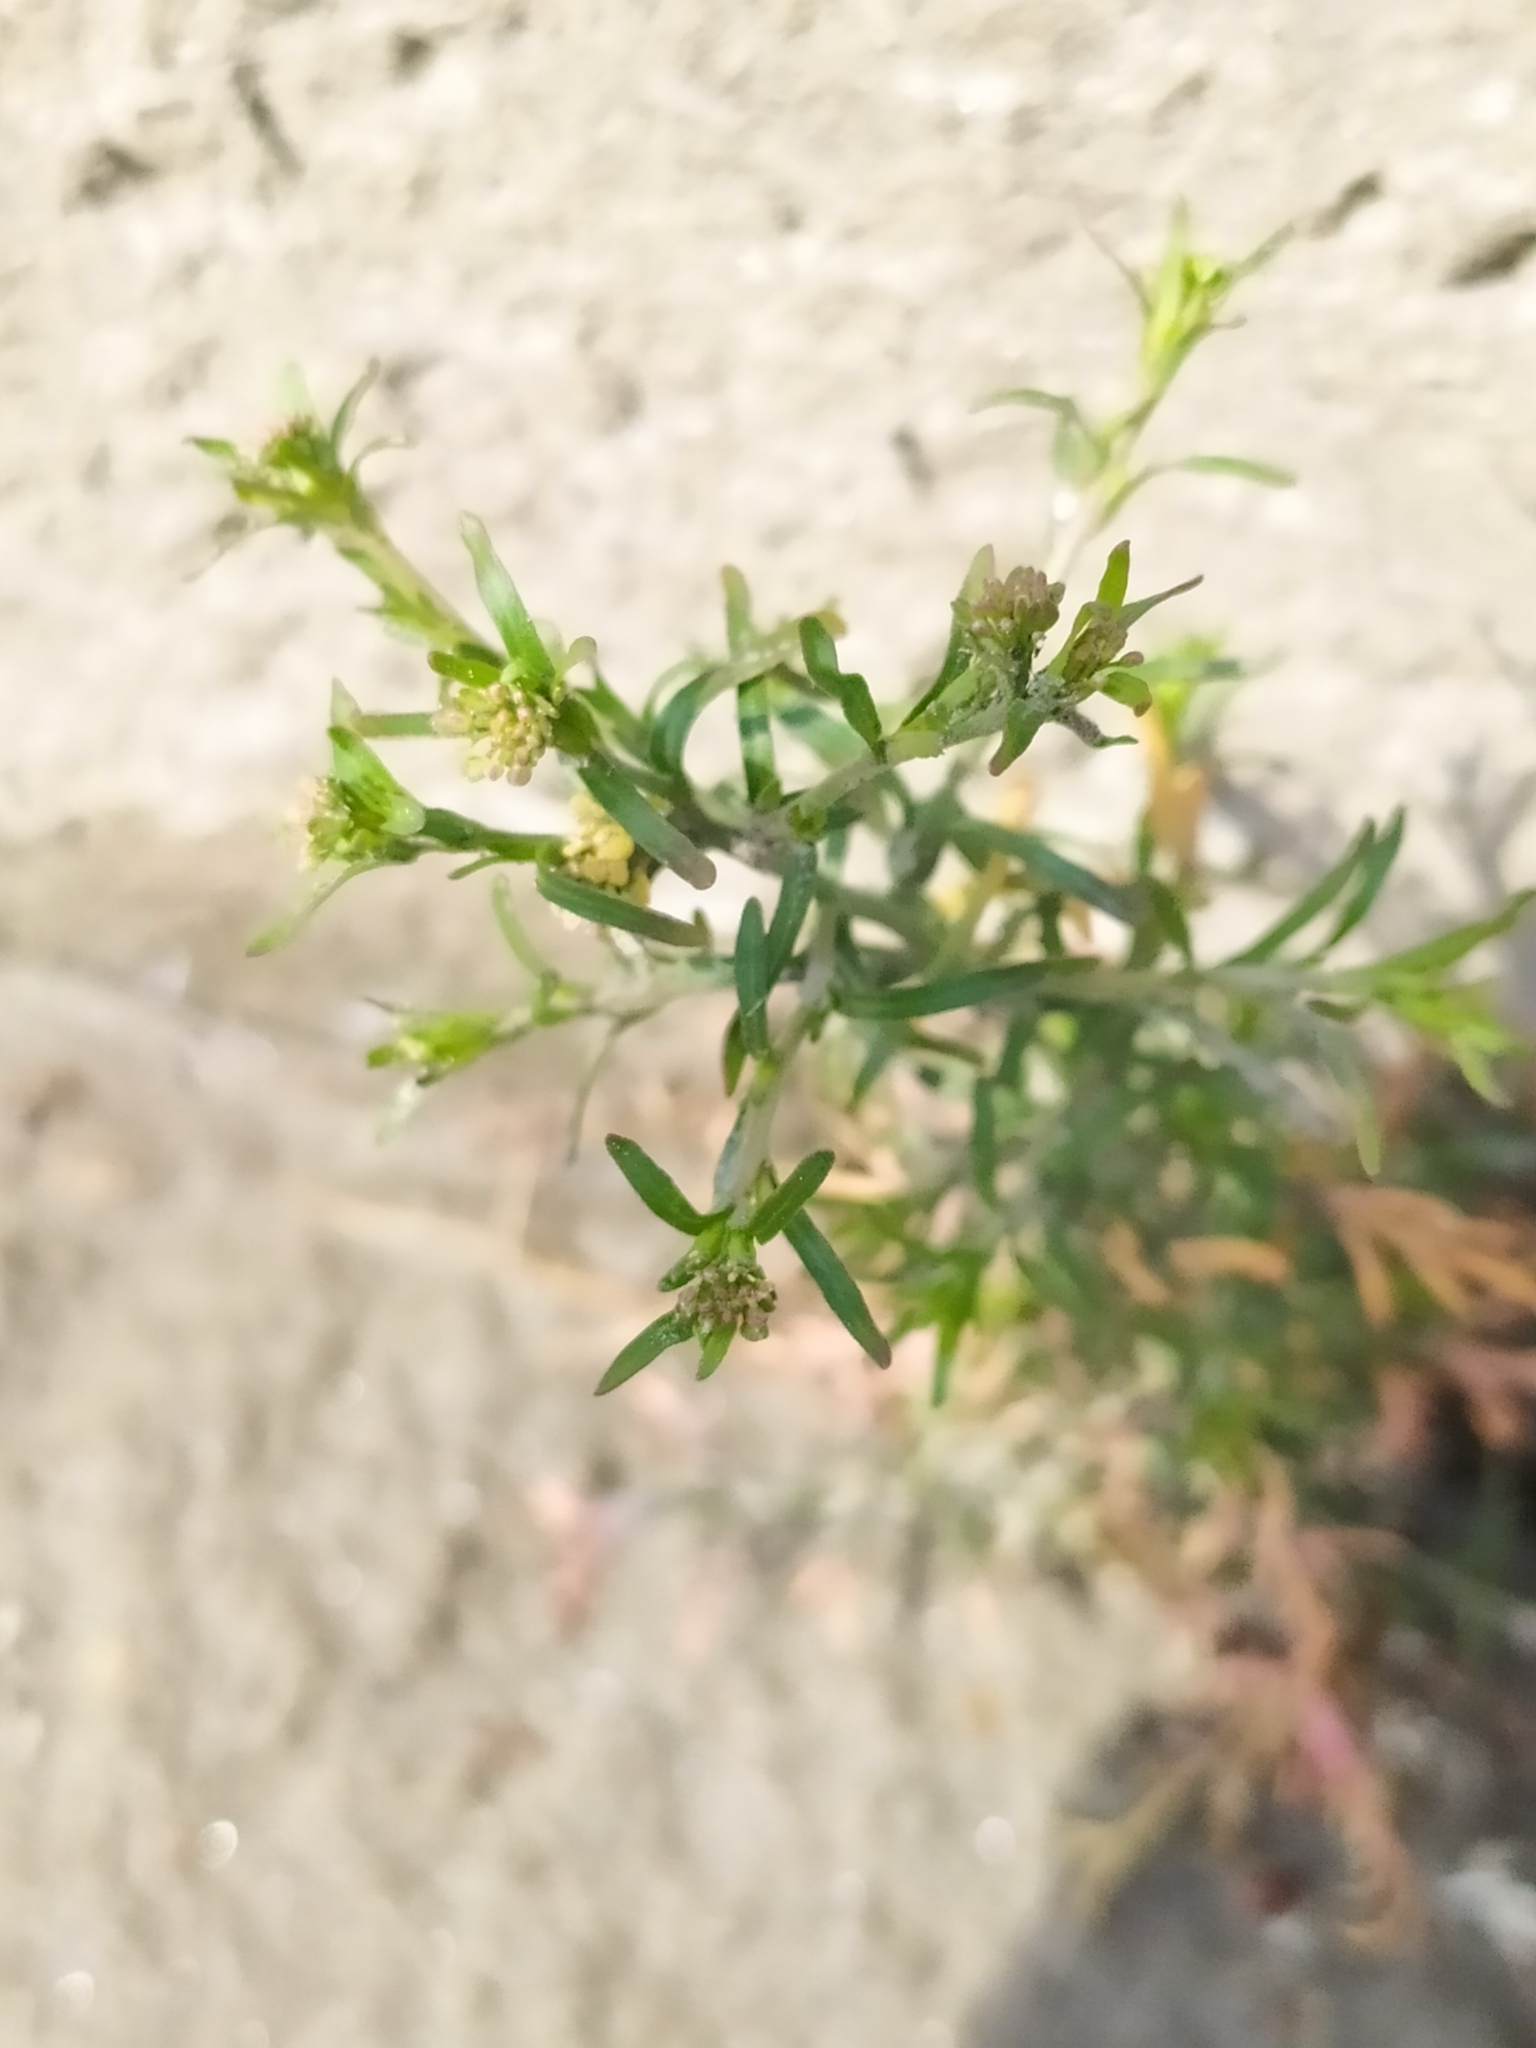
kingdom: Plantae
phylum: Tracheophyta
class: Magnoliopsida
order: Brassicales
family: Brassicaceae
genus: Lepidium
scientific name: Lepidium ruderale
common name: Narrow-leaved pepperwort
